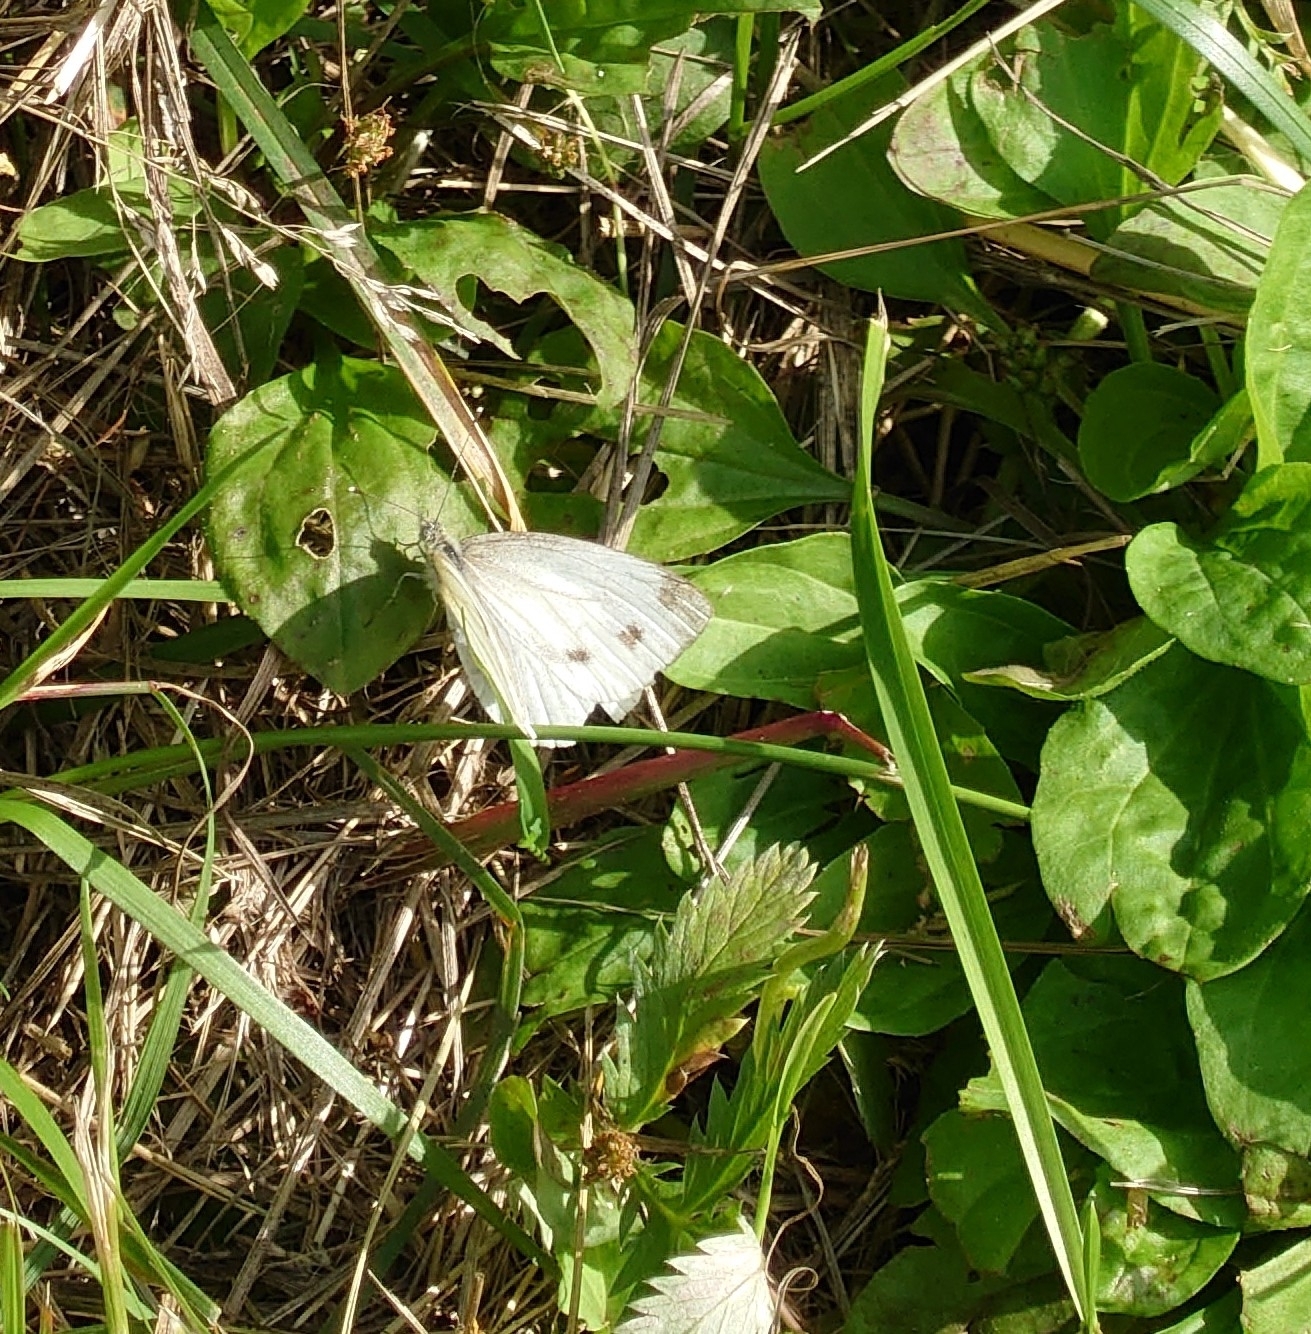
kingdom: Animalia
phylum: Arthropoda
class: Insecta
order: Lepidoptera
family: Pieridae
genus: Pieris
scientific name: Pieris napi
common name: Green-veined white
